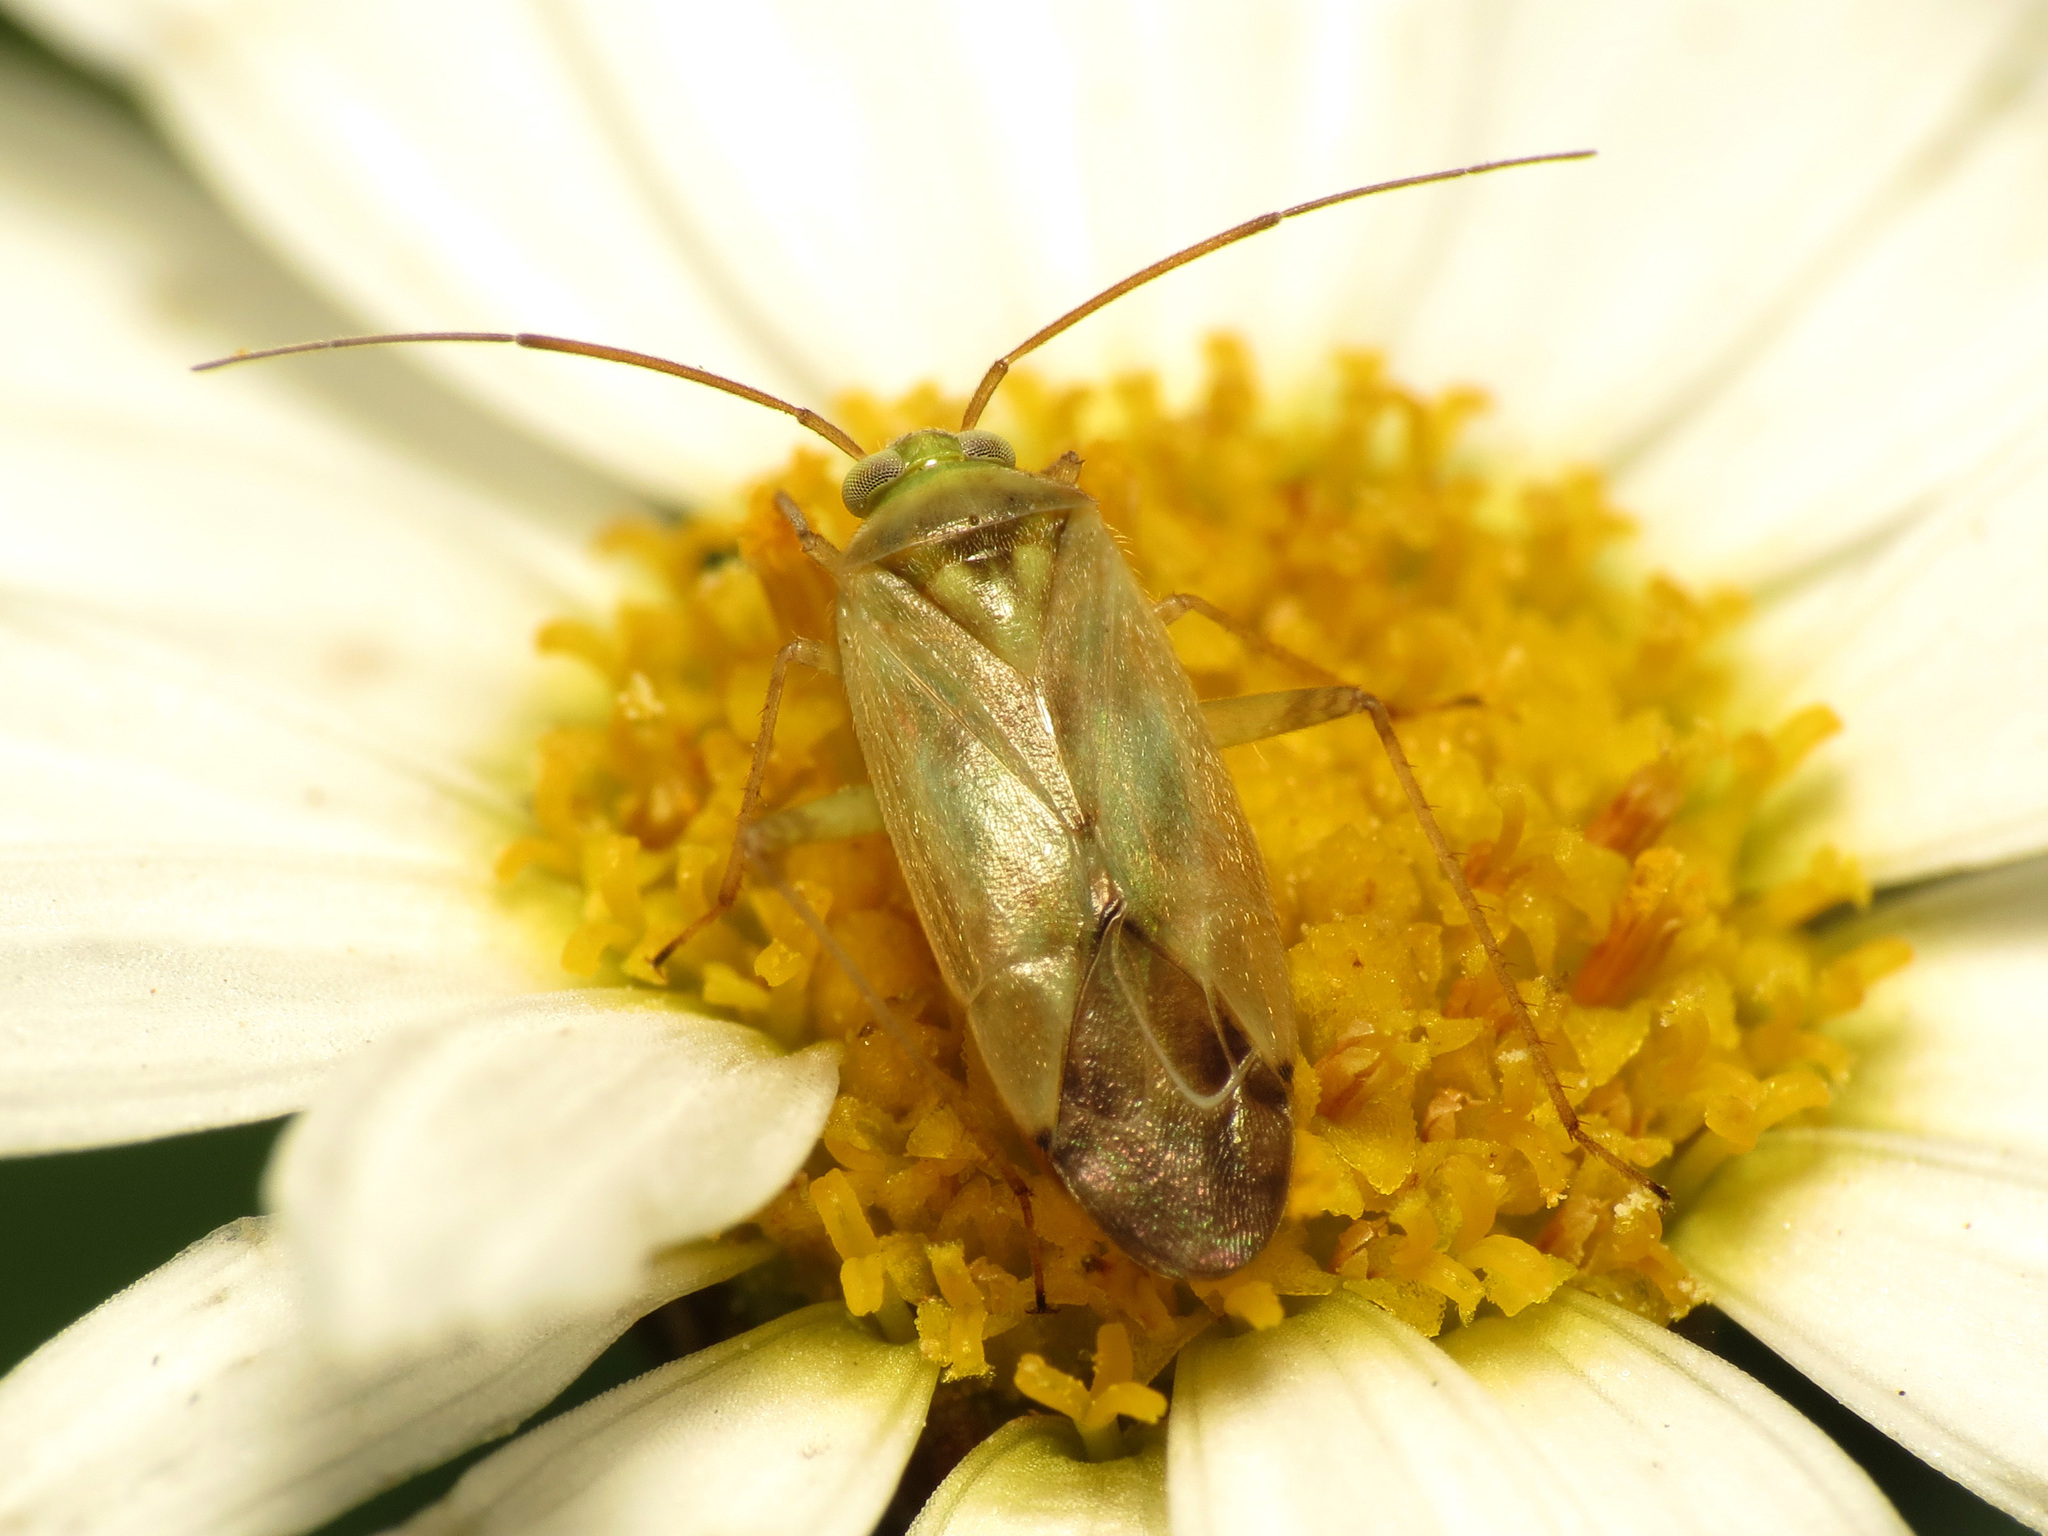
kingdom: Animalia
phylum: Arthropoda
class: Insecta
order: Hemiptera
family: Miridae
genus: Taylorilygus
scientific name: Taylorilygus apicalis
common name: Plant bug
